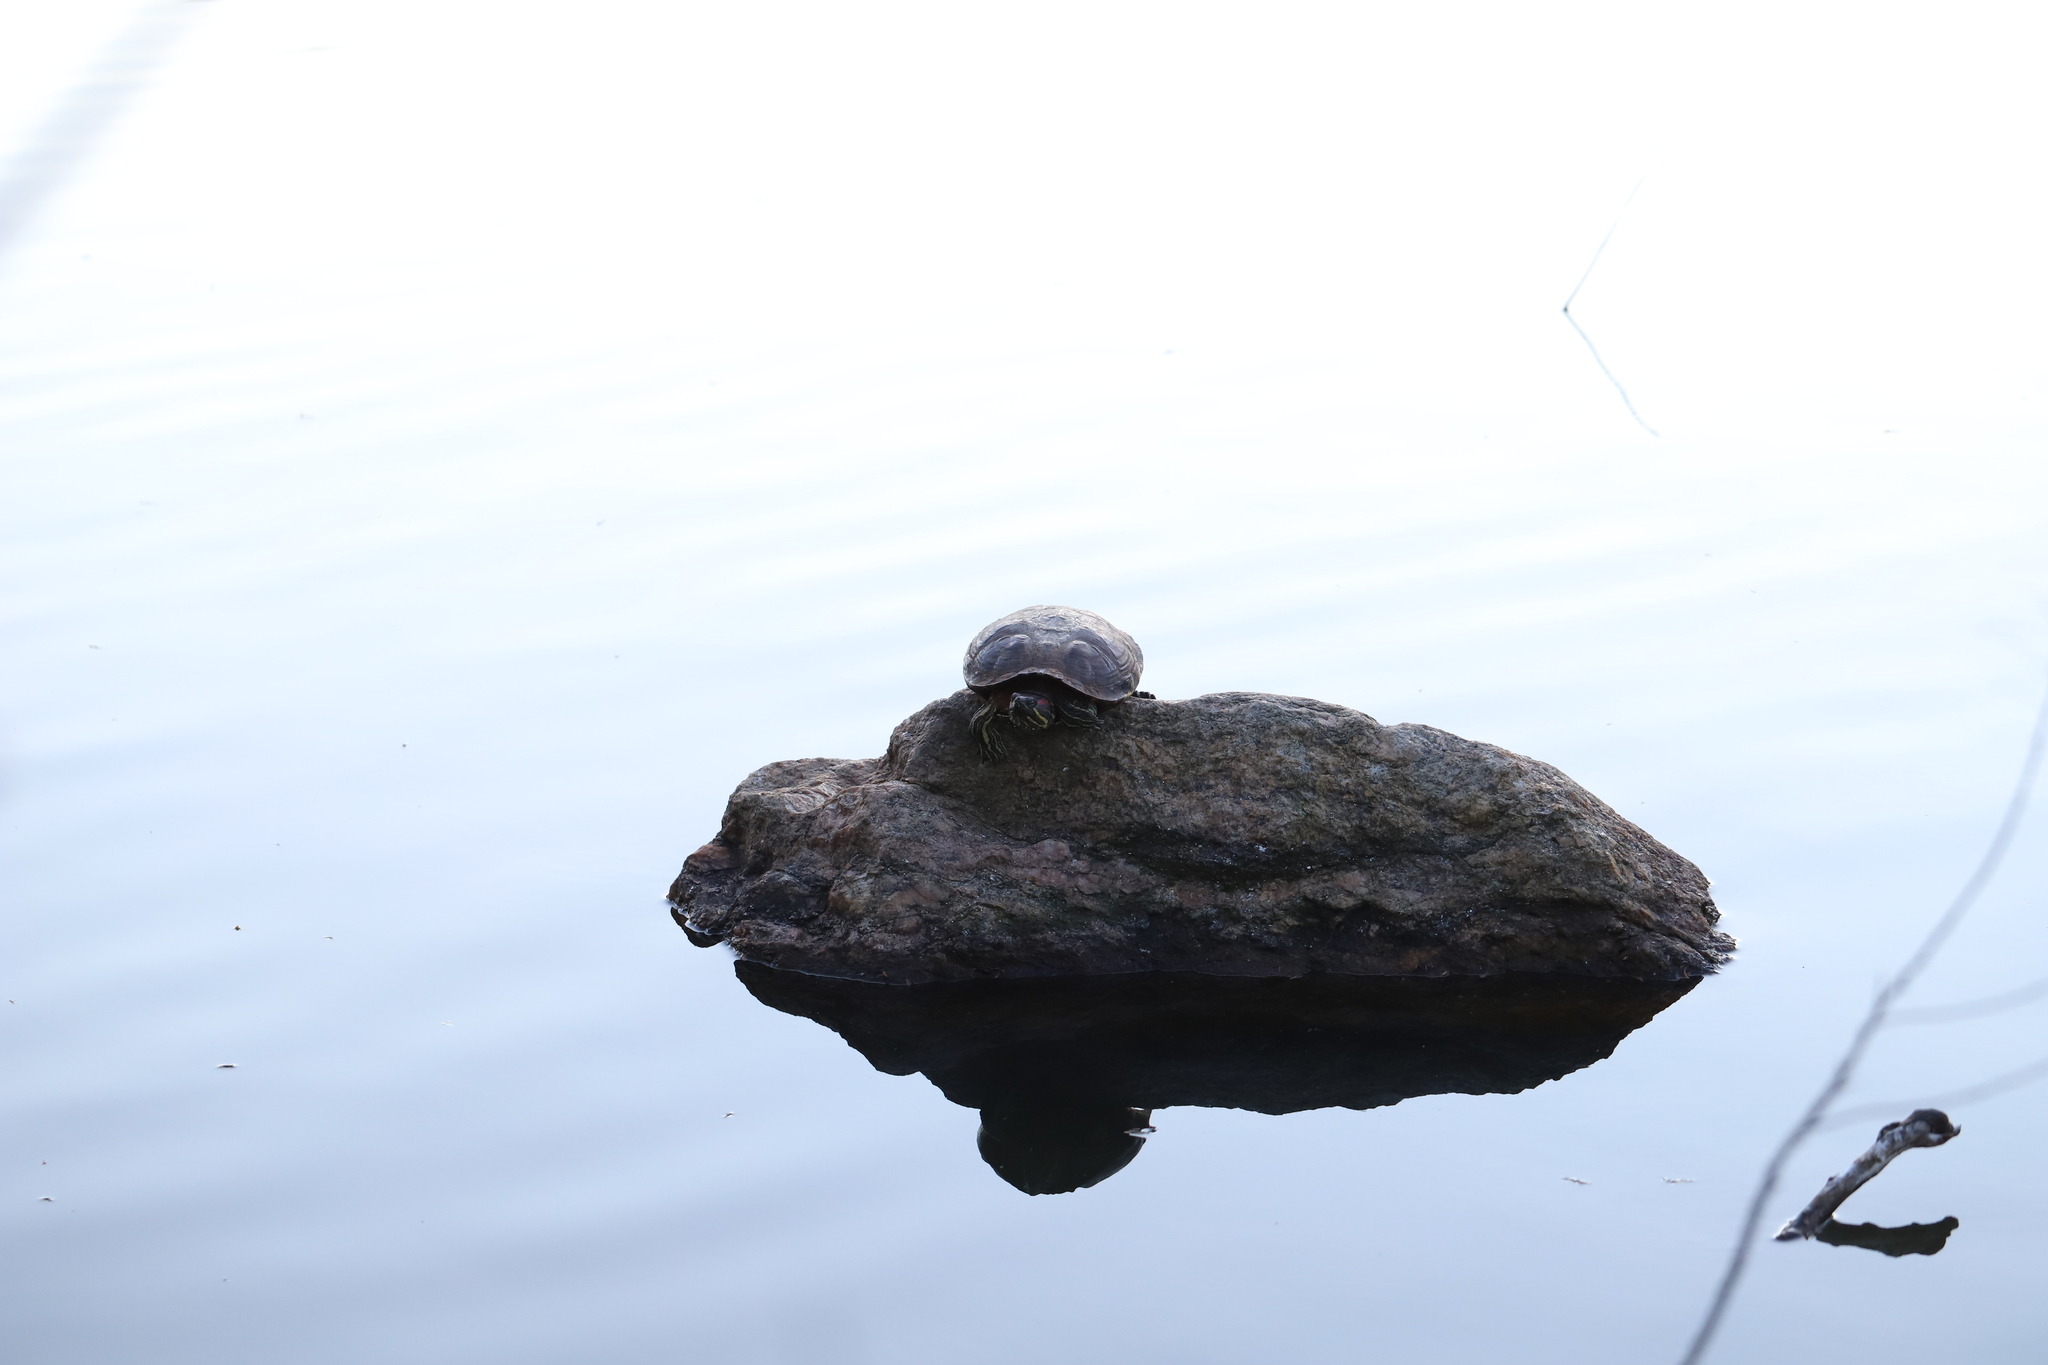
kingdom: Animalia
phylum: Chordata
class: Testudines
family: Emydidae
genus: Trachemys
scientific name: Trachemys scripta
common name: Slider
